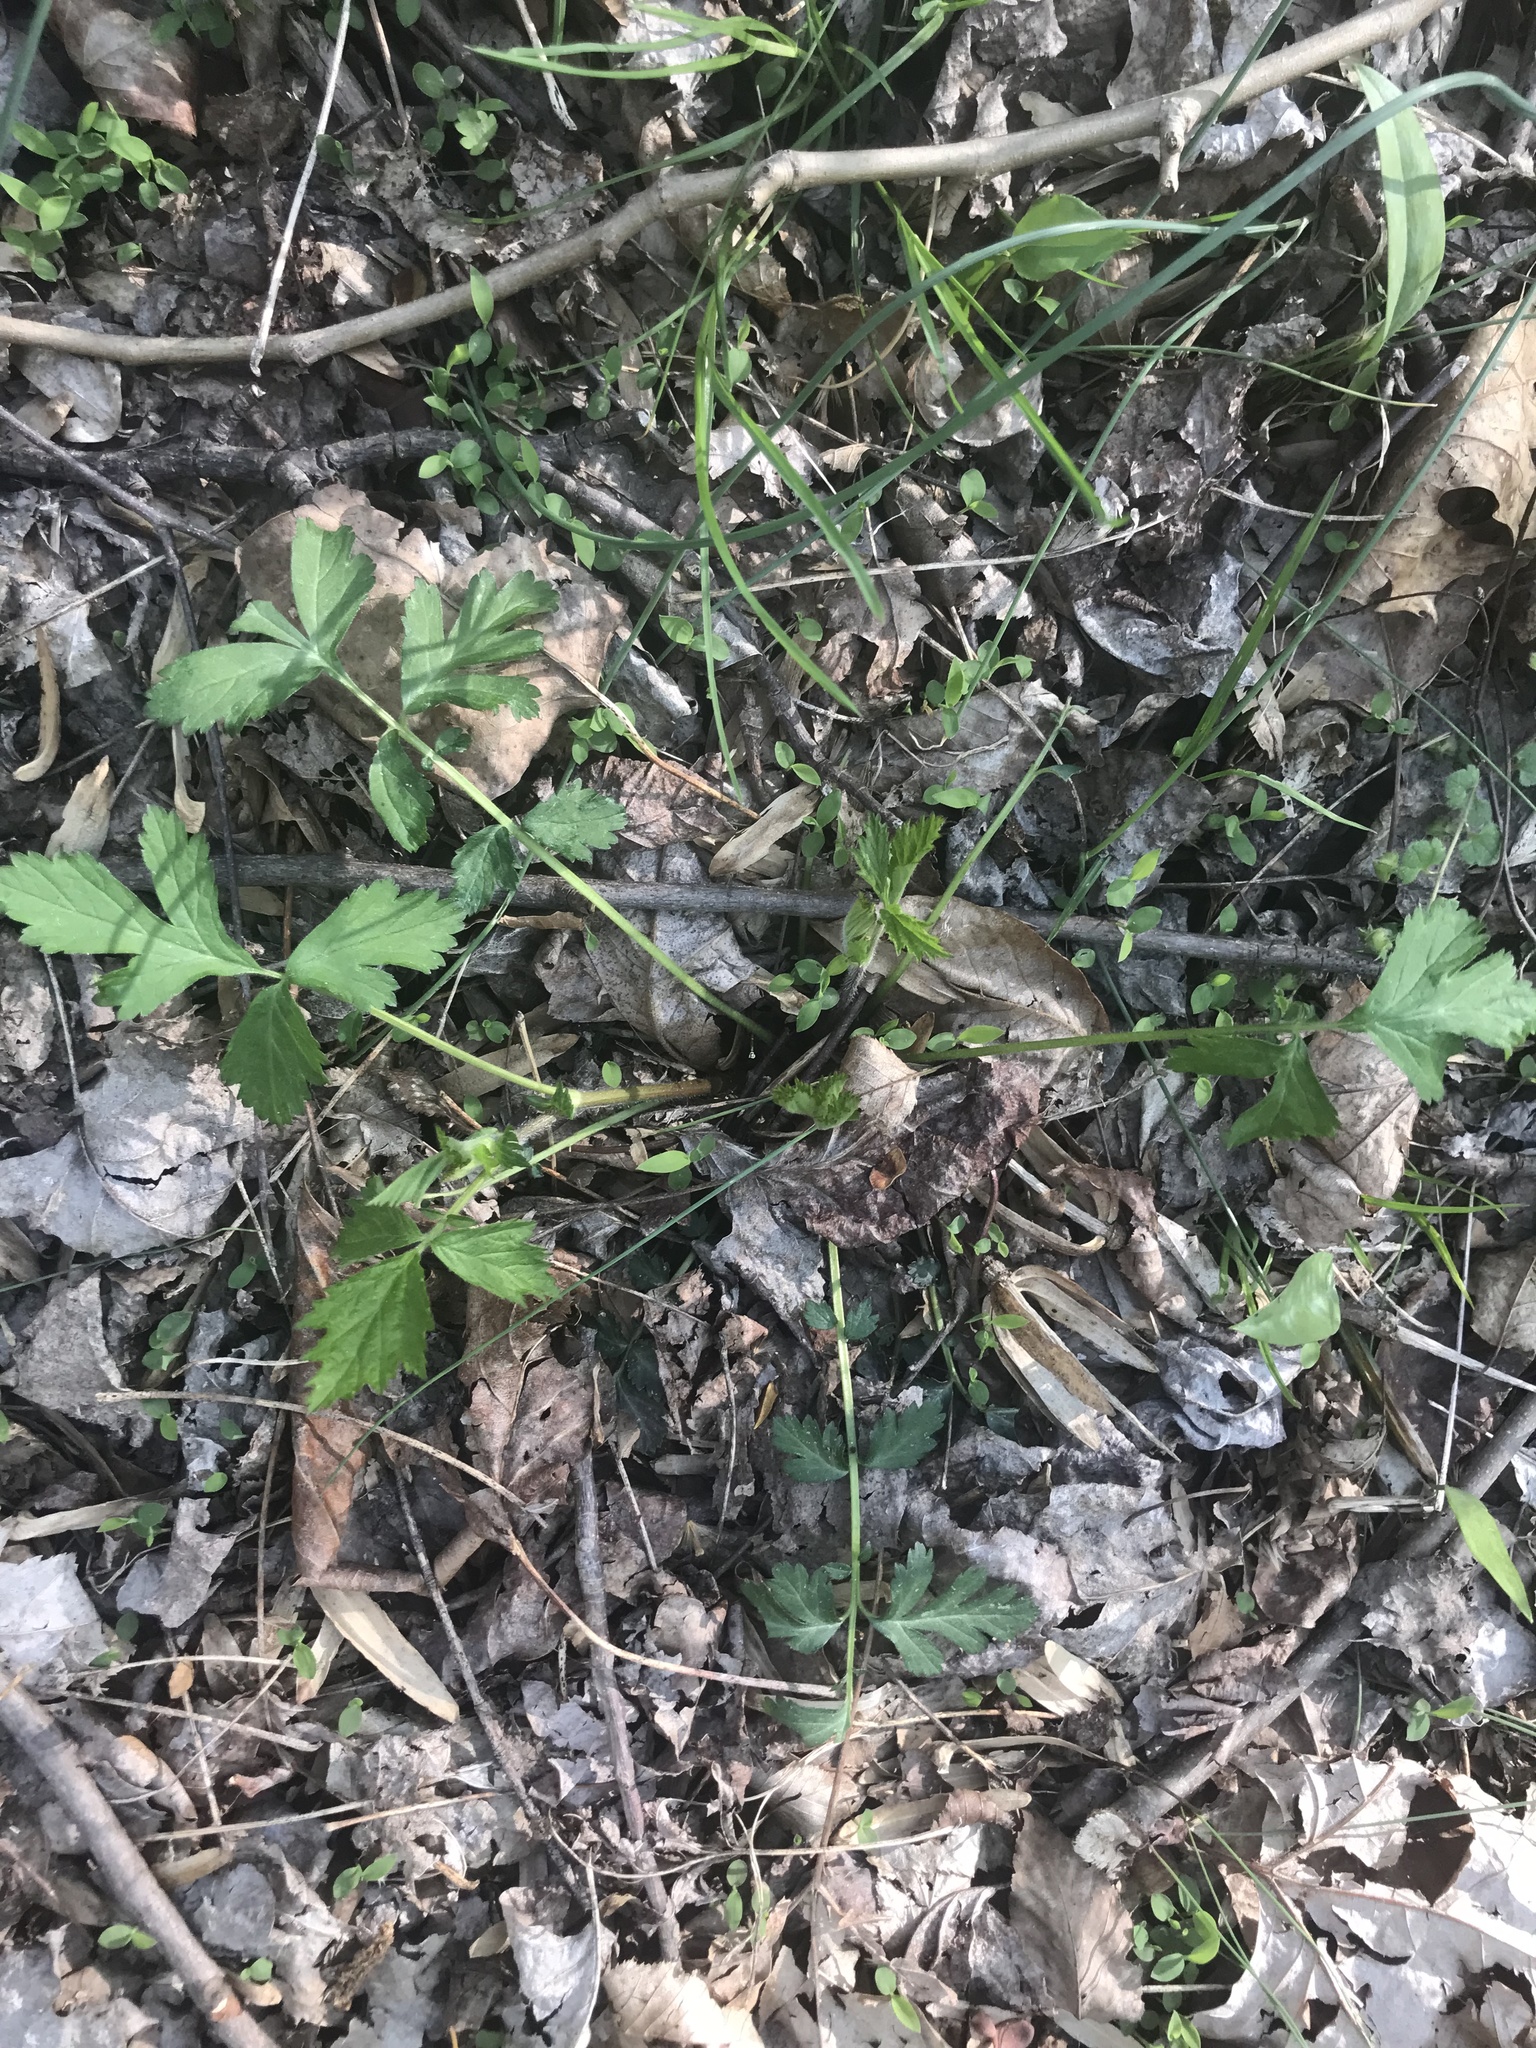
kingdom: Plantae
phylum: Tracheophyta
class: Magnoliopsida
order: Rosales
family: Rosaceae
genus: Geum
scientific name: Geum canadense
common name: White avens
